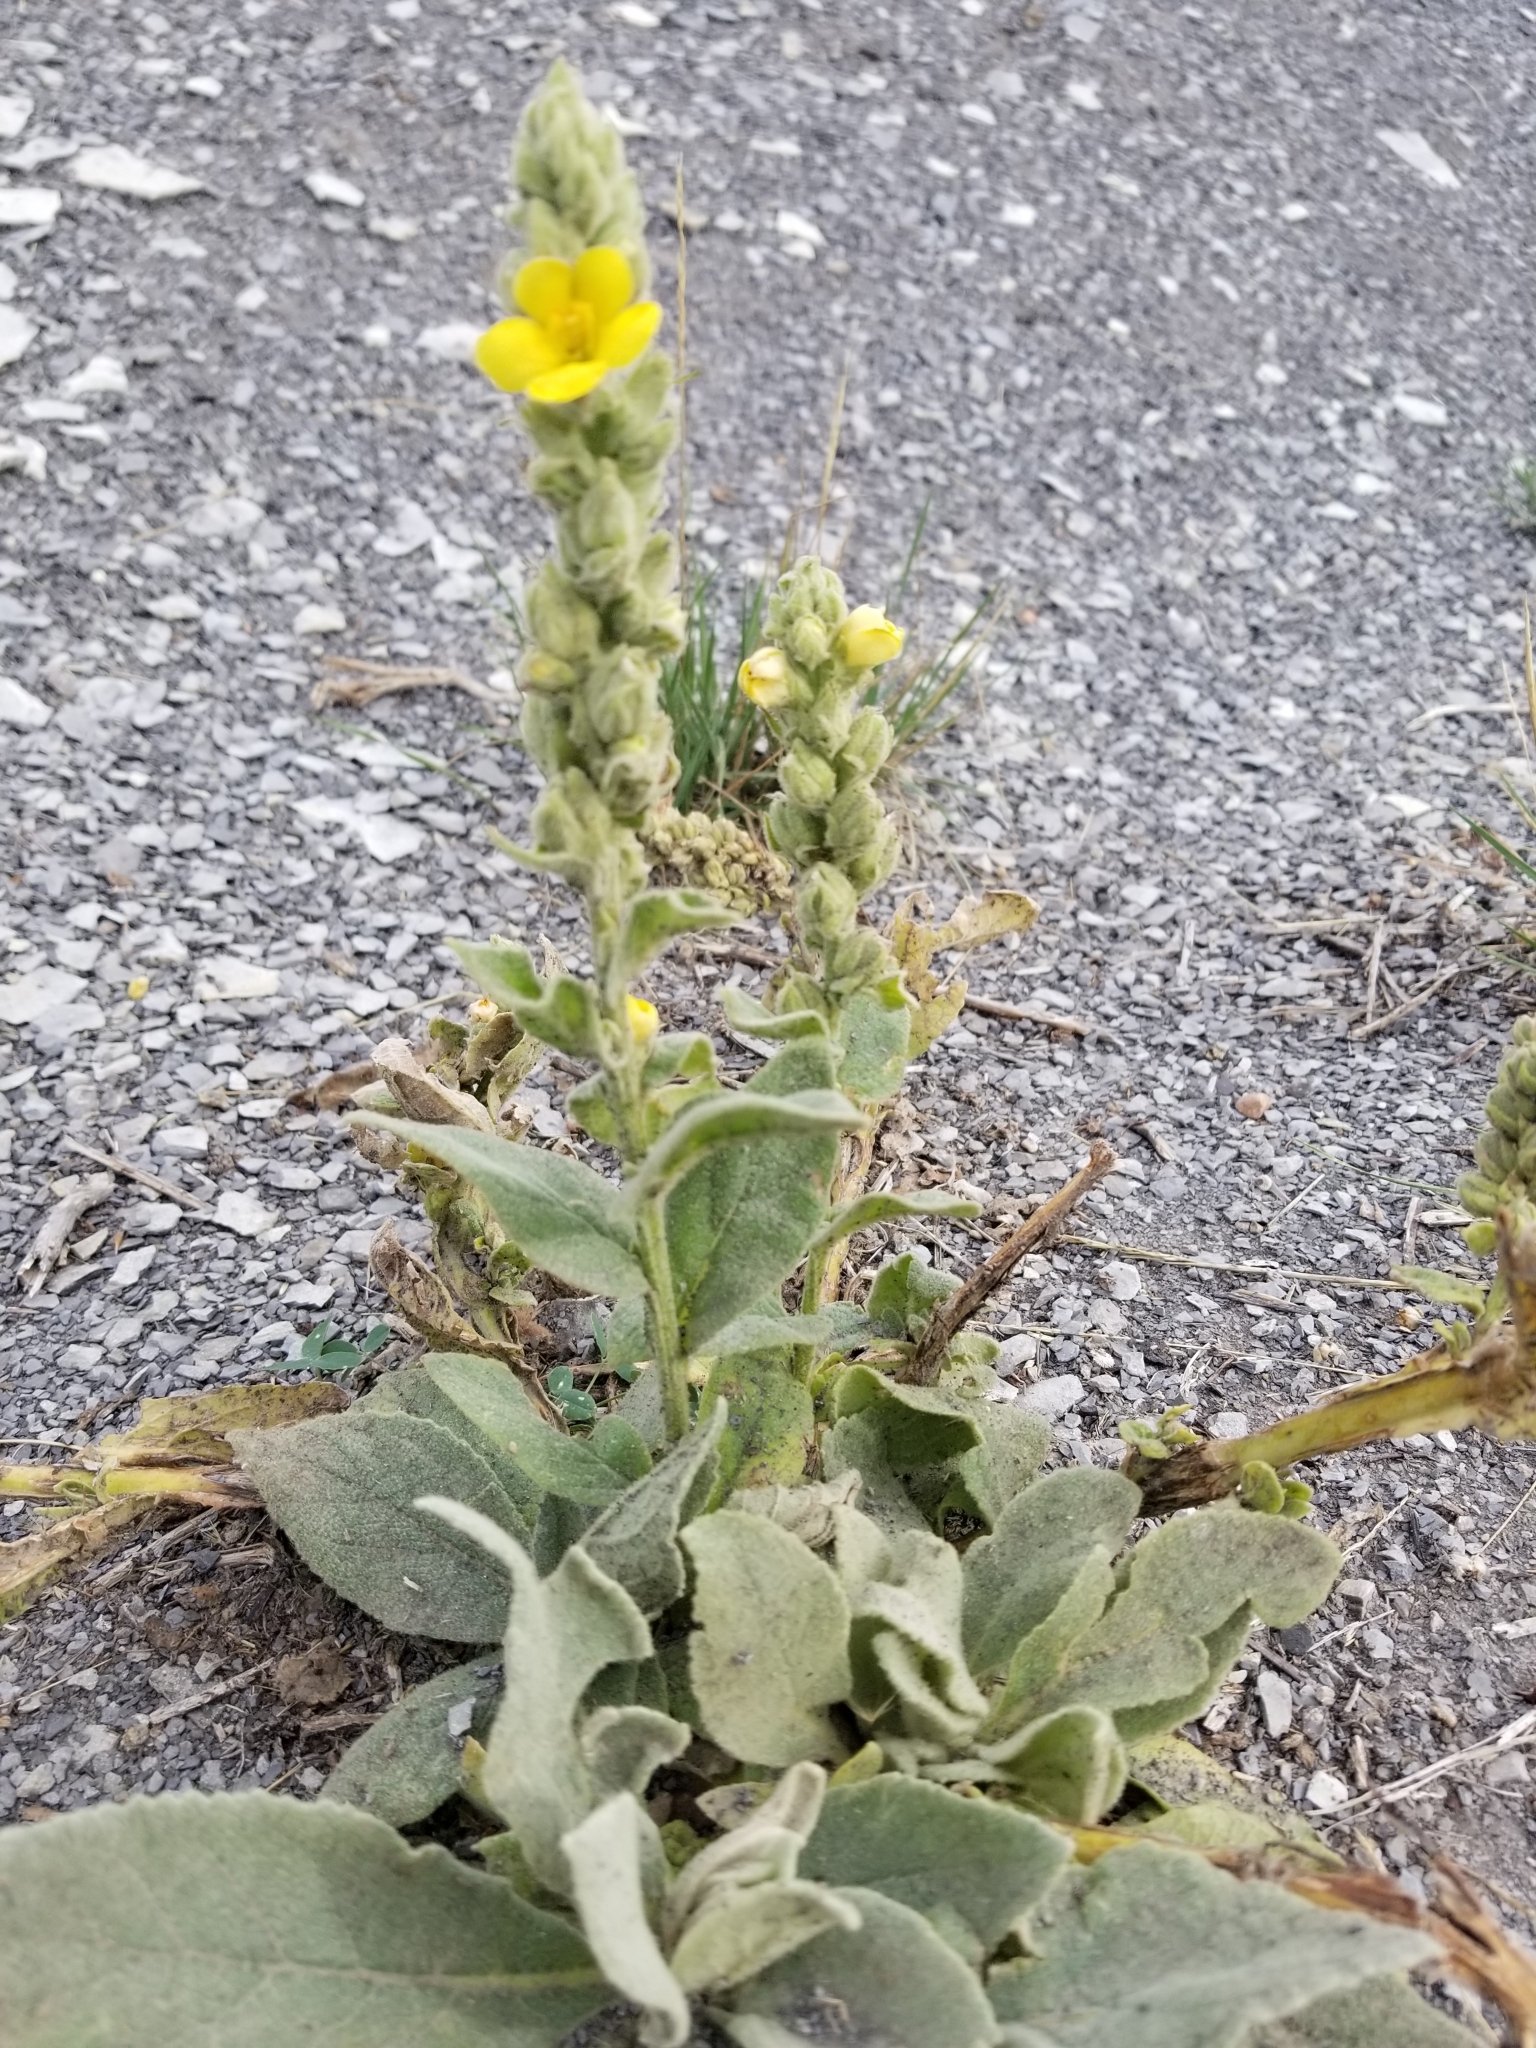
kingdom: Plantae
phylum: Tracheophyta
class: Magnoliopsida
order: Lamiales
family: Scrophulariaceae
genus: Verbascum
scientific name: Verbascum thapsus
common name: Common mullein
